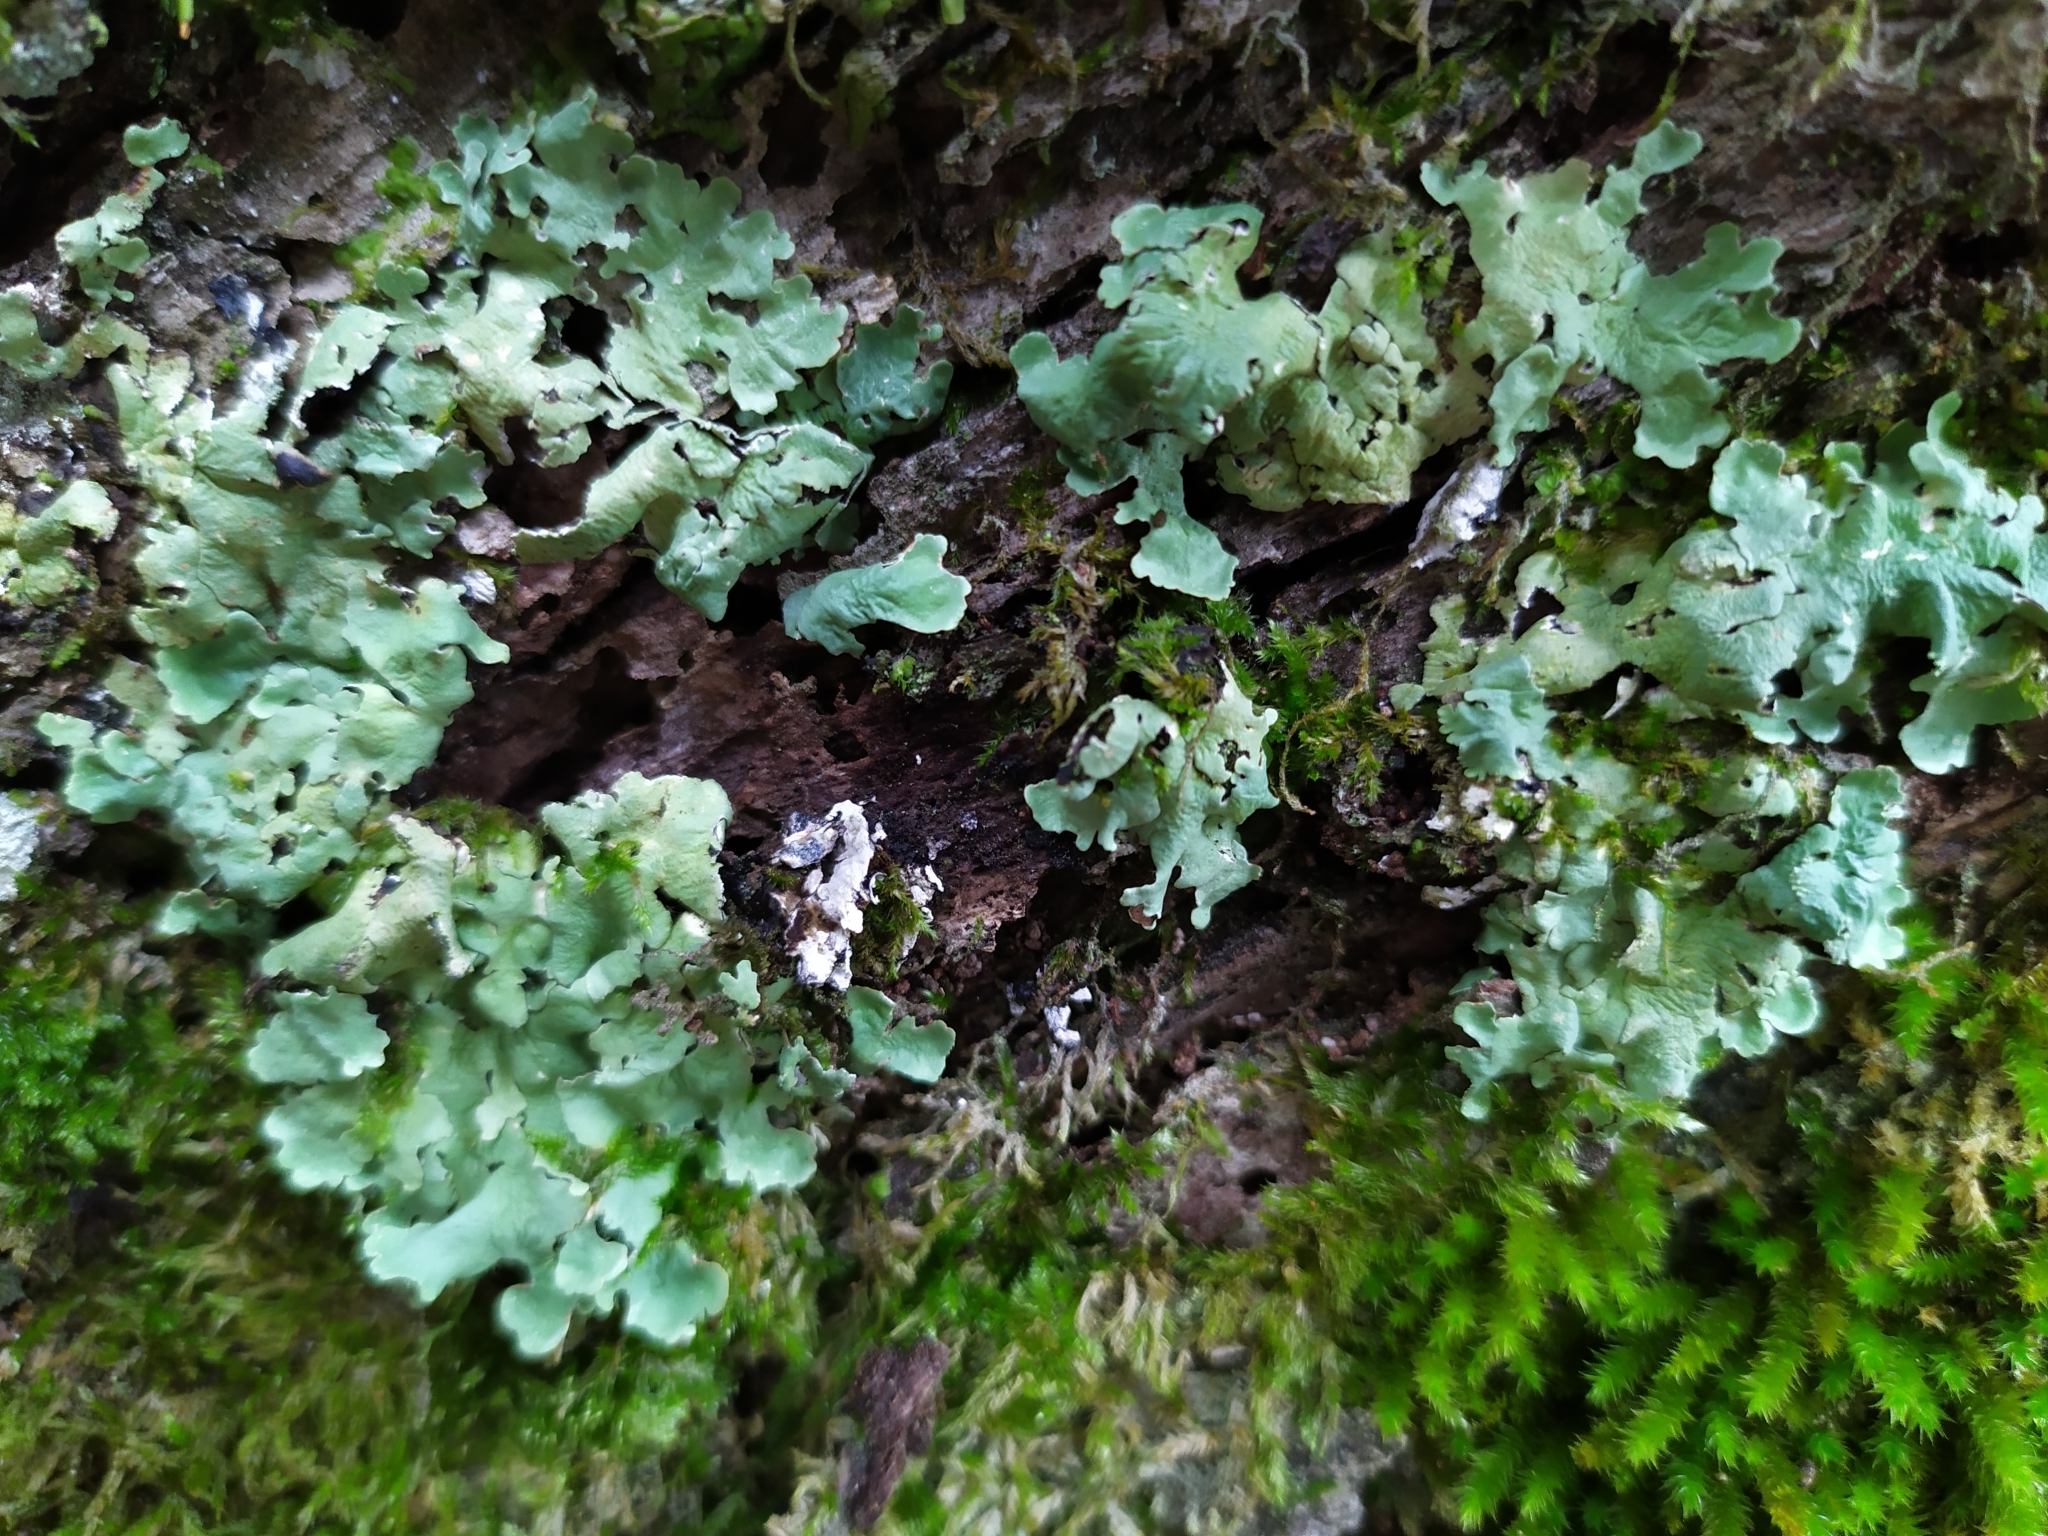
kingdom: Fungi
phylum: Ascomycota
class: Lecanoromycetes
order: Lecanorales
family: Parmeliaceae
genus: Flavoparmelia
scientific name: Flavoparmelia caperata
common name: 40-mile per hour lichen
